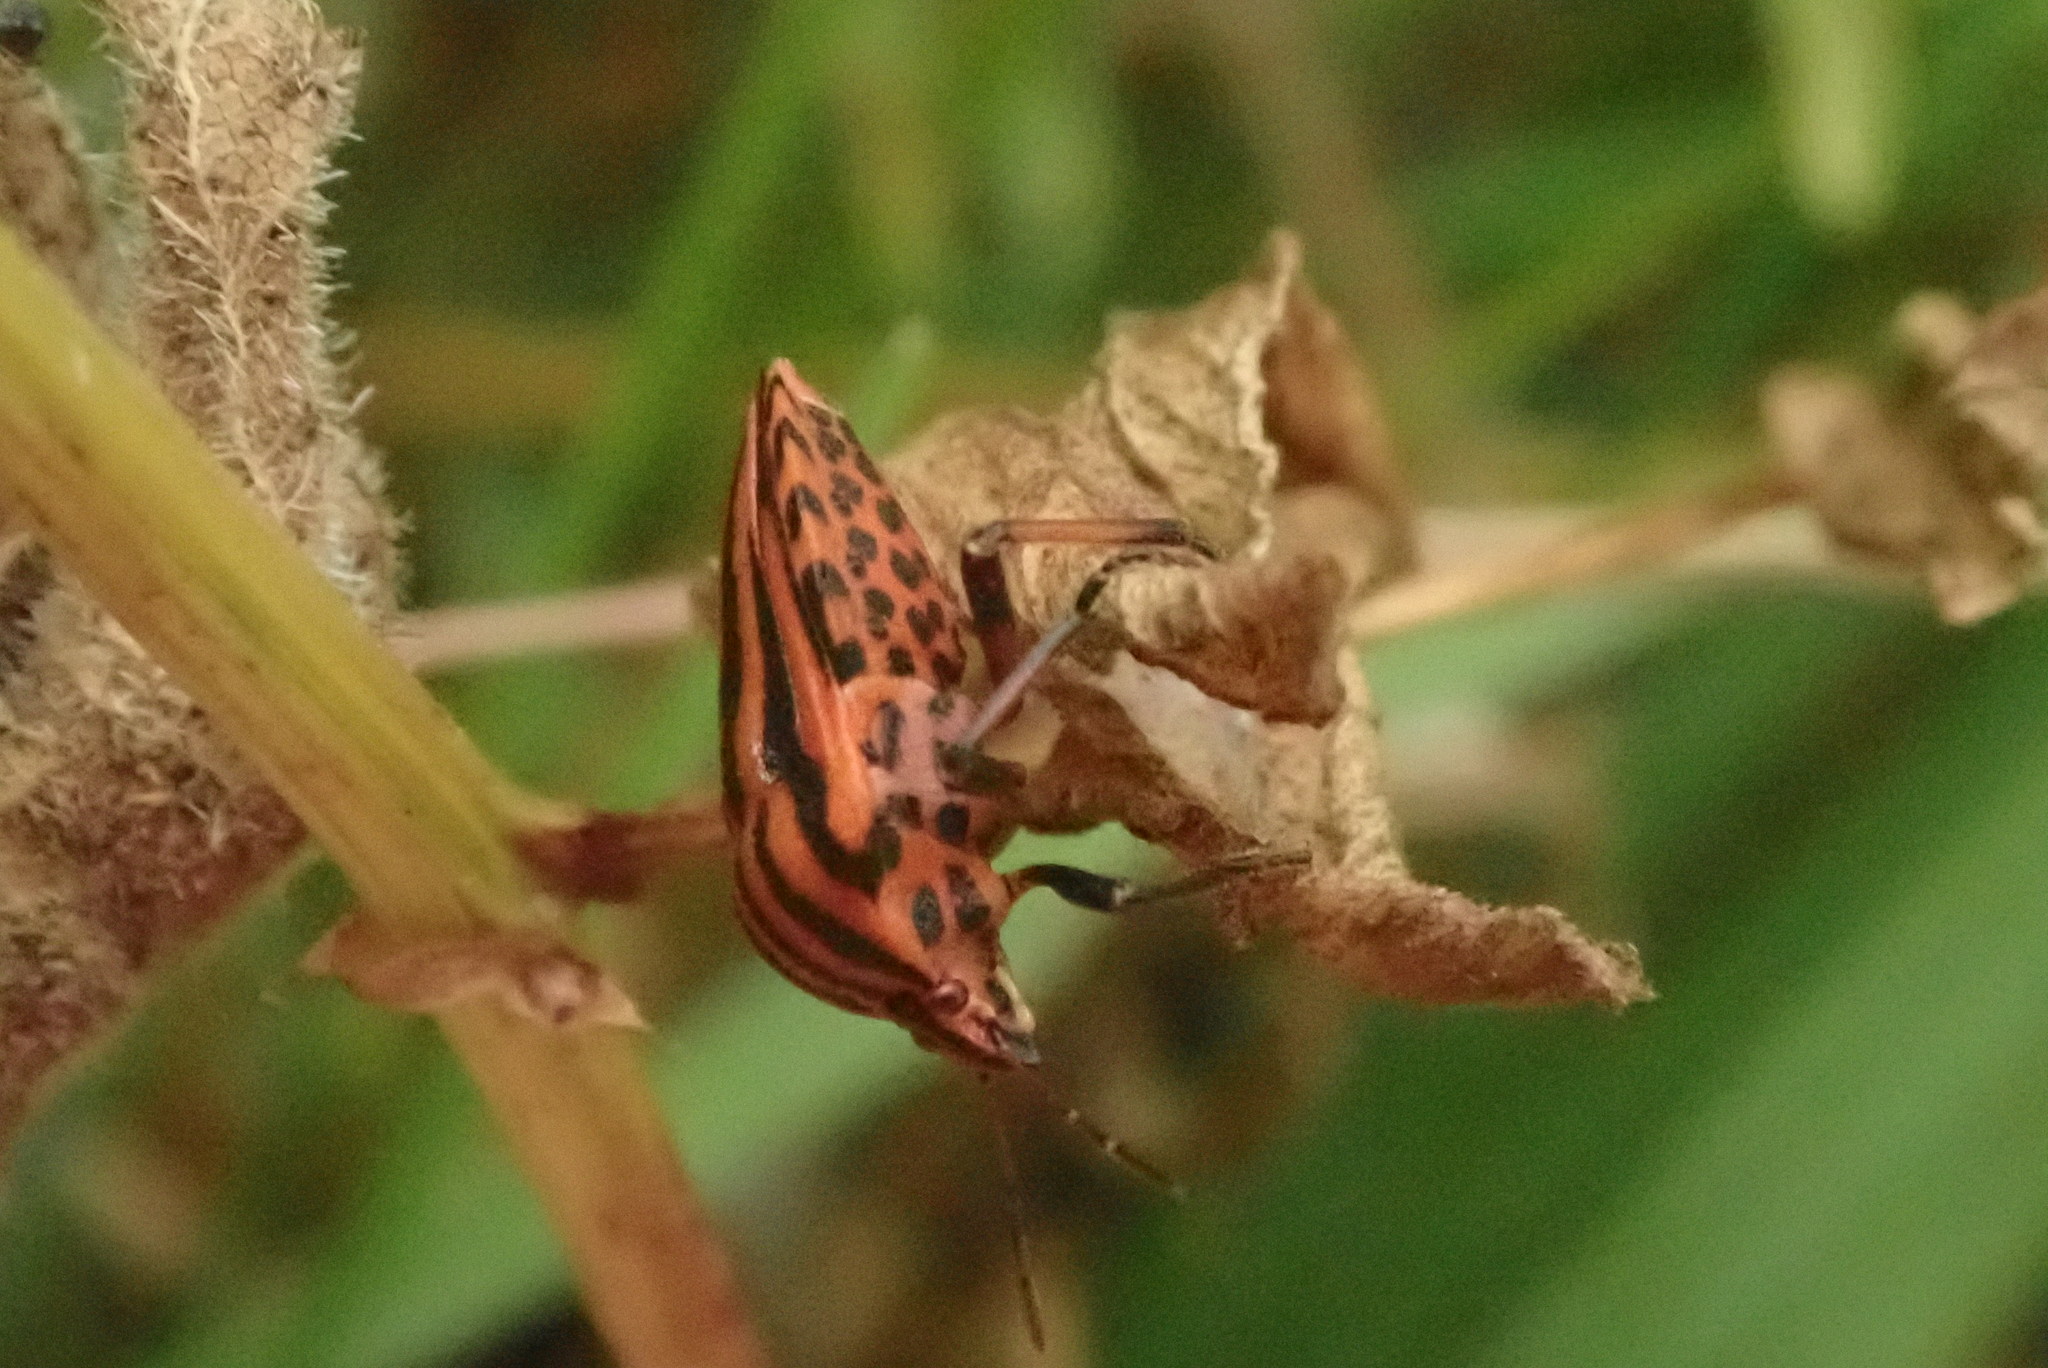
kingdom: Animalia
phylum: Arthropoda
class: Insecta
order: Hemiptera
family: Pentatomidae
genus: Graphosoma
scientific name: Graphosoma italicum
